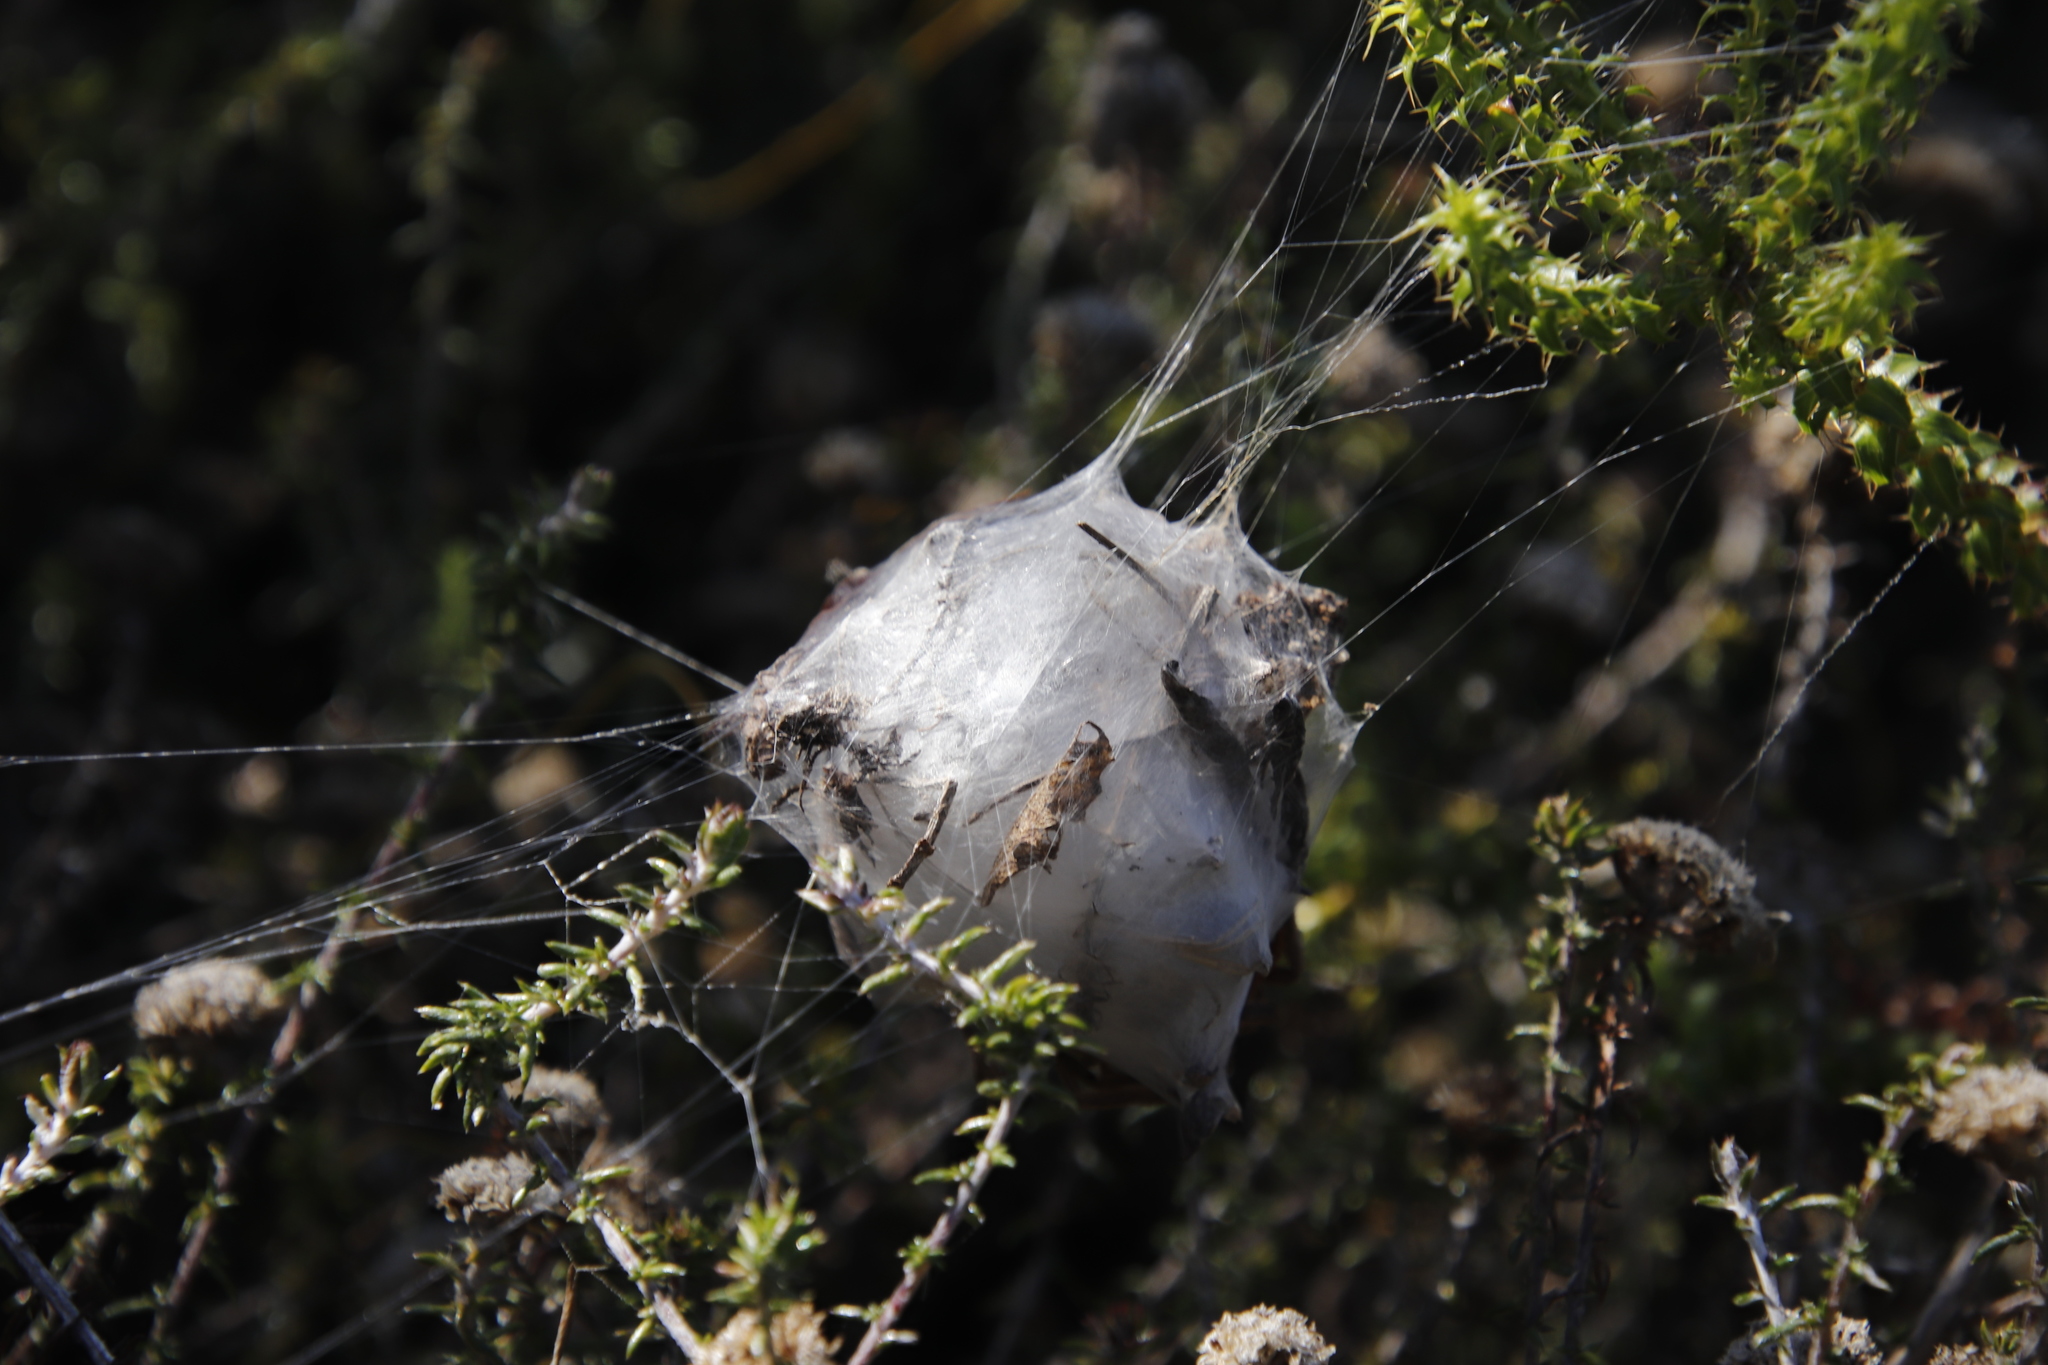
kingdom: Animalia
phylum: Arthropoda
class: Arachnida
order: Araneae
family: Sparassidae
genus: Palystes
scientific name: Palystes superciliosus
